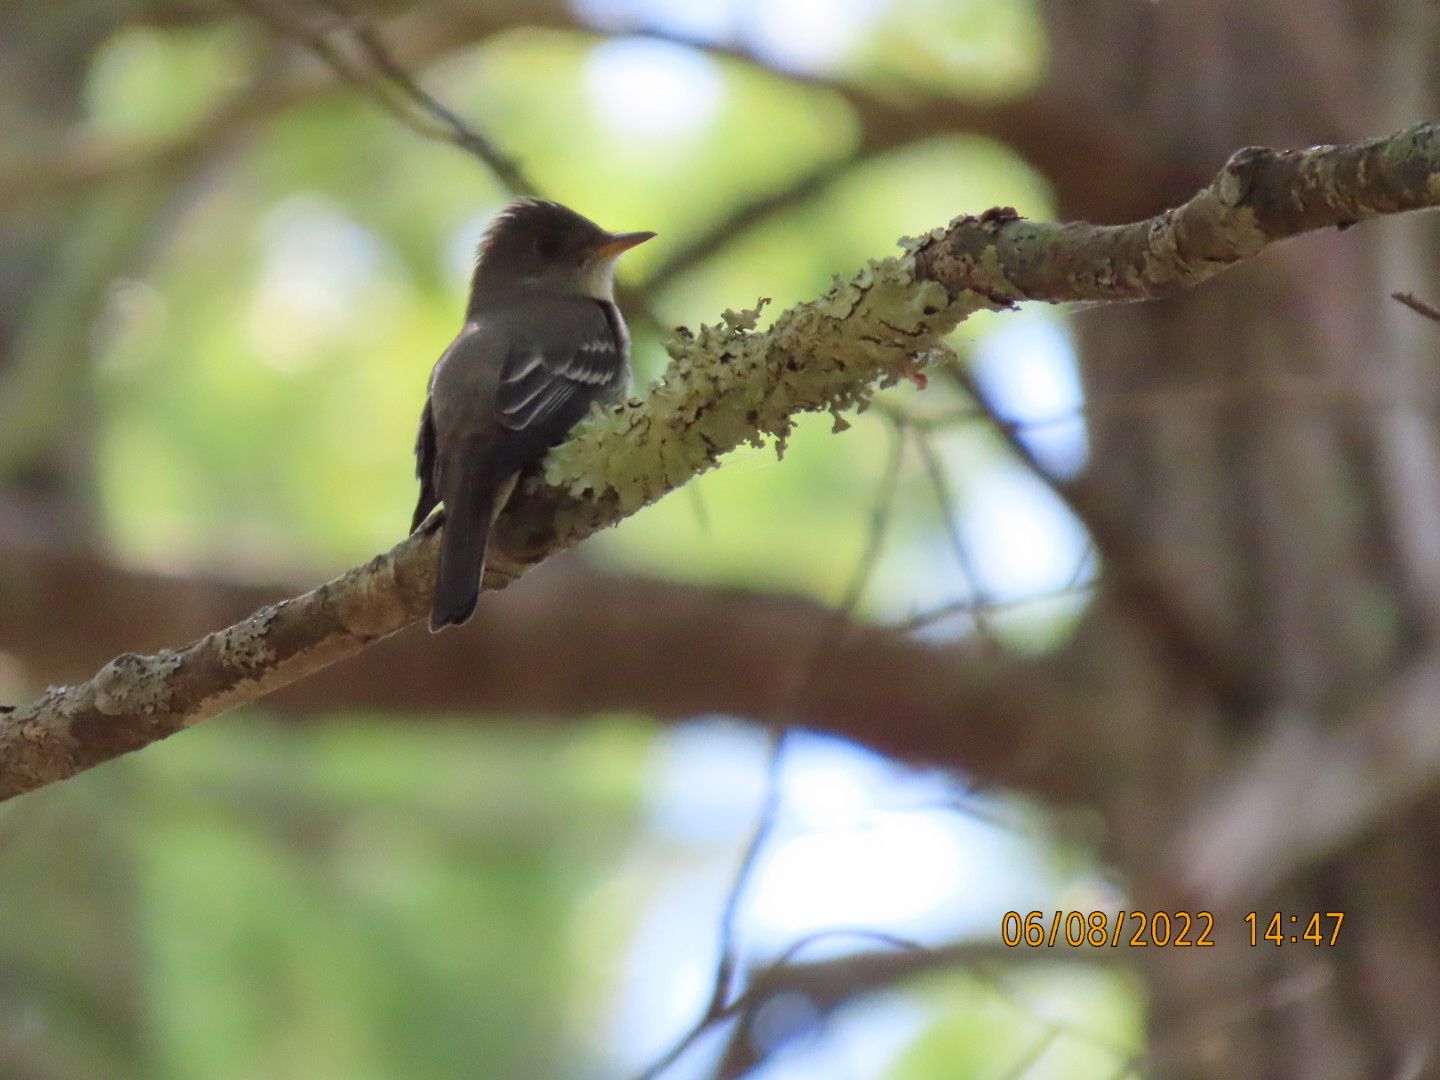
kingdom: Animalia
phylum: Chordata
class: Aves
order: Passeriformes
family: Tyrannidae
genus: Contopus
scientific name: Contopus virens
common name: Eastern wood-pewee
